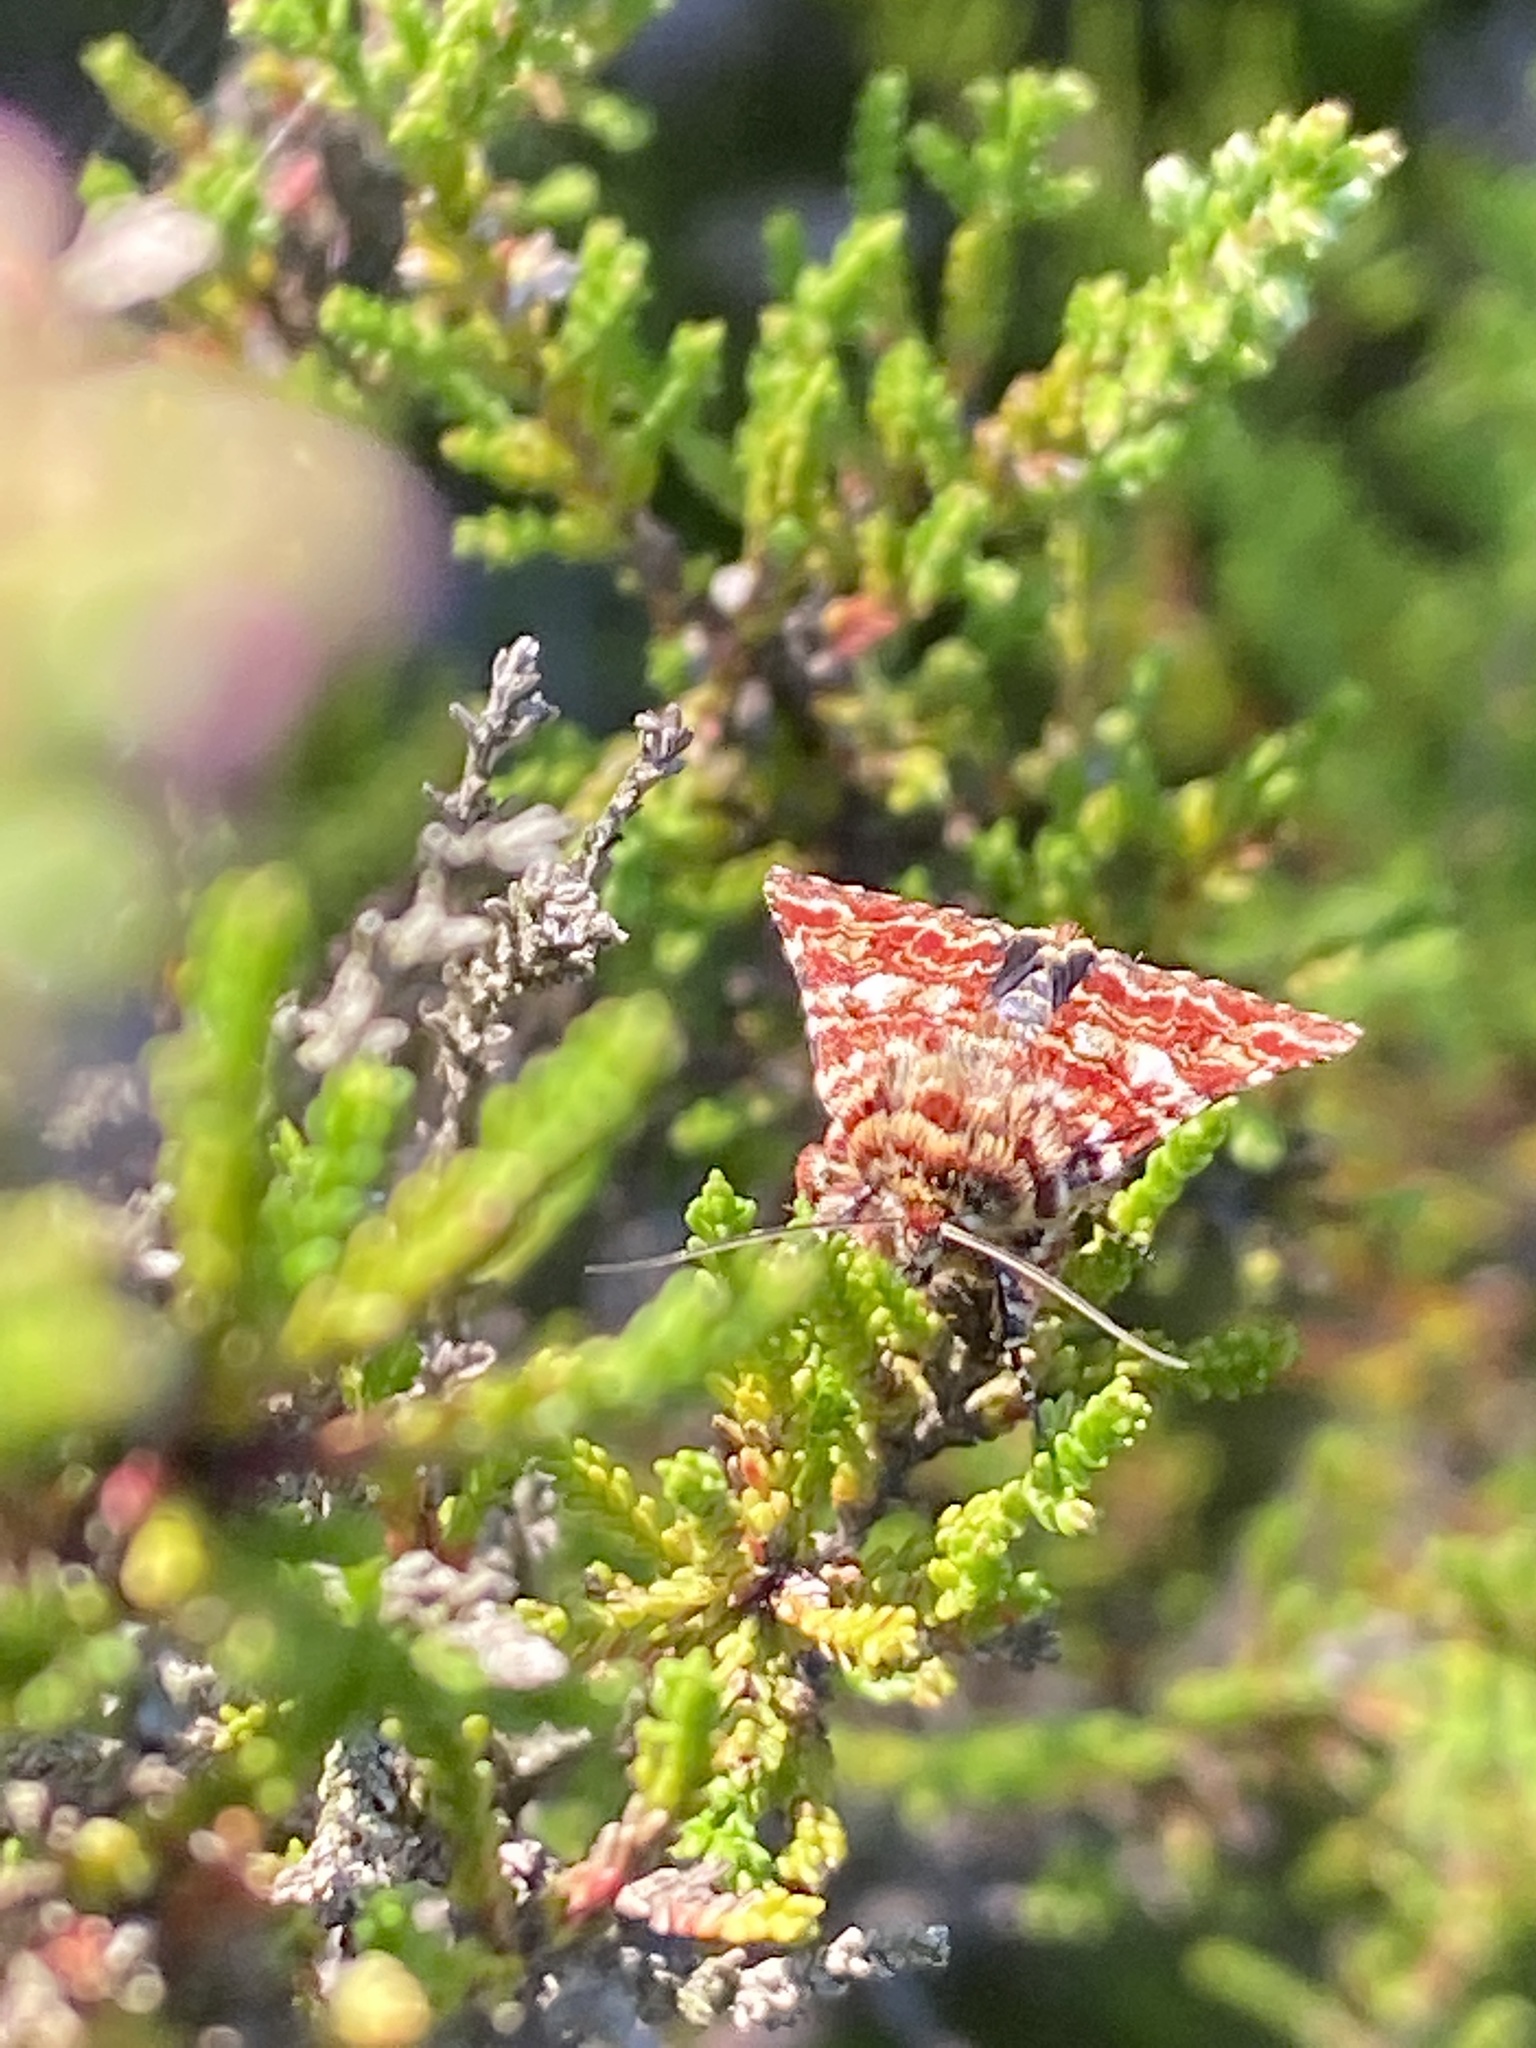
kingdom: Animalia
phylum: Arthropoda
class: Insecta
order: Lepidoptera
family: Noctuidae
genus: Anarta
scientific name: Anarta myrtilli
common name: Beautiful yellow underwing
